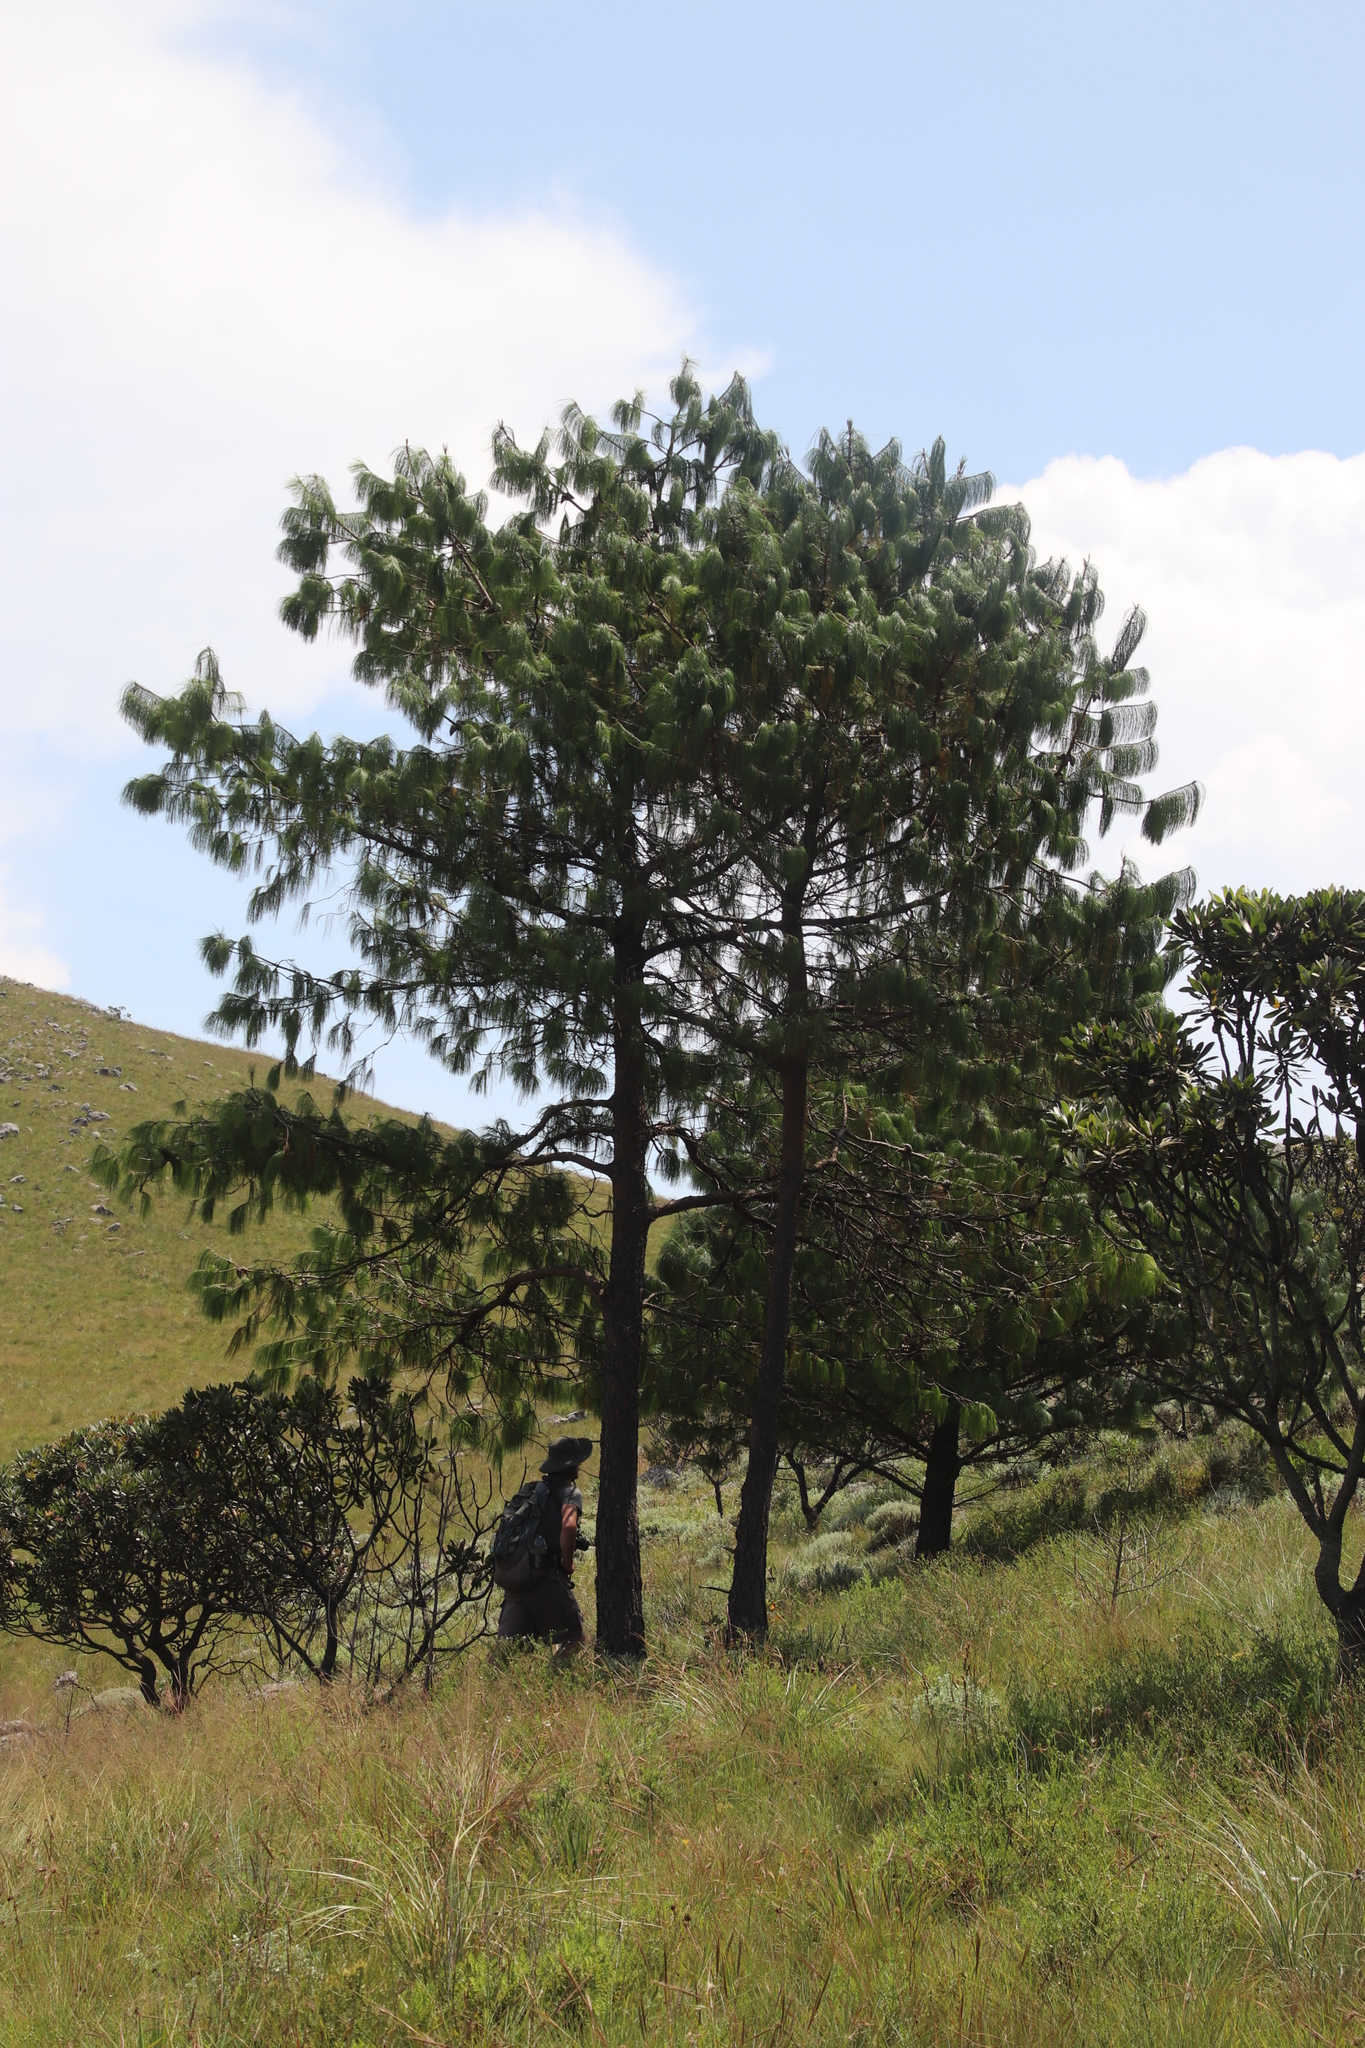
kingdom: Plantae
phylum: Tracheophyta
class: Pinopsida
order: Pinales
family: Pinaceae
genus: Pinus
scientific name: Pinus patula
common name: Mexican weeping pine
